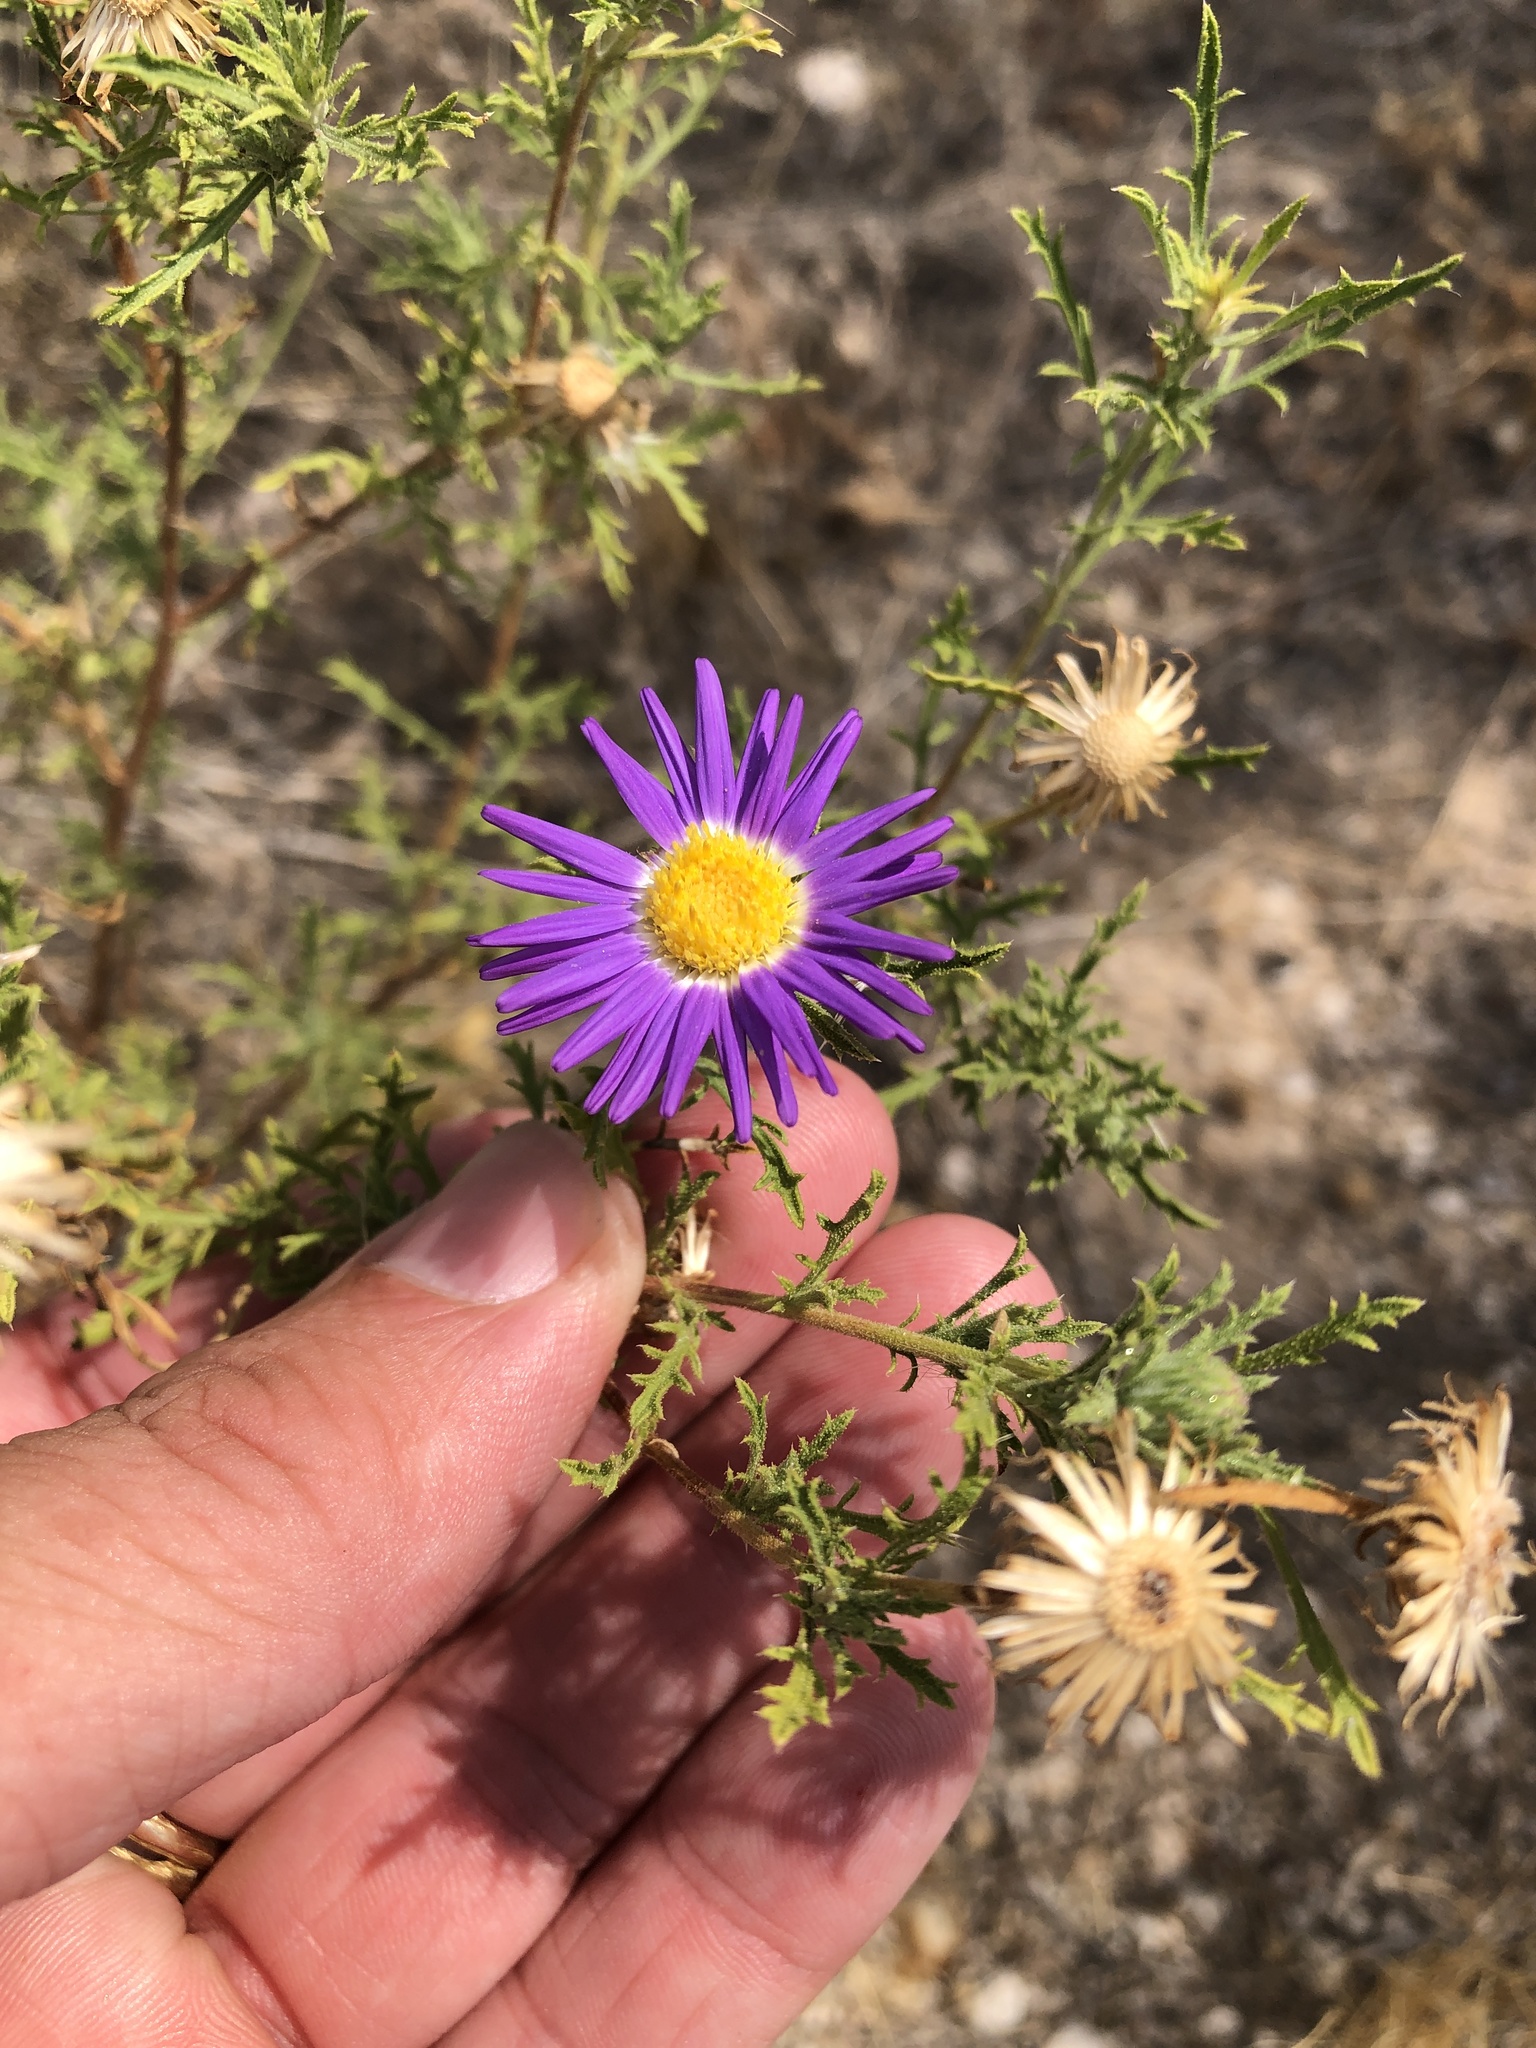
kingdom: Plantae
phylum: Tracheophyta
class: Magnoliopsida
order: Asterales
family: Asteraceae
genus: Machaeranthera
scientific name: Machaeranthera tanacetifolia
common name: Tansy-aster
